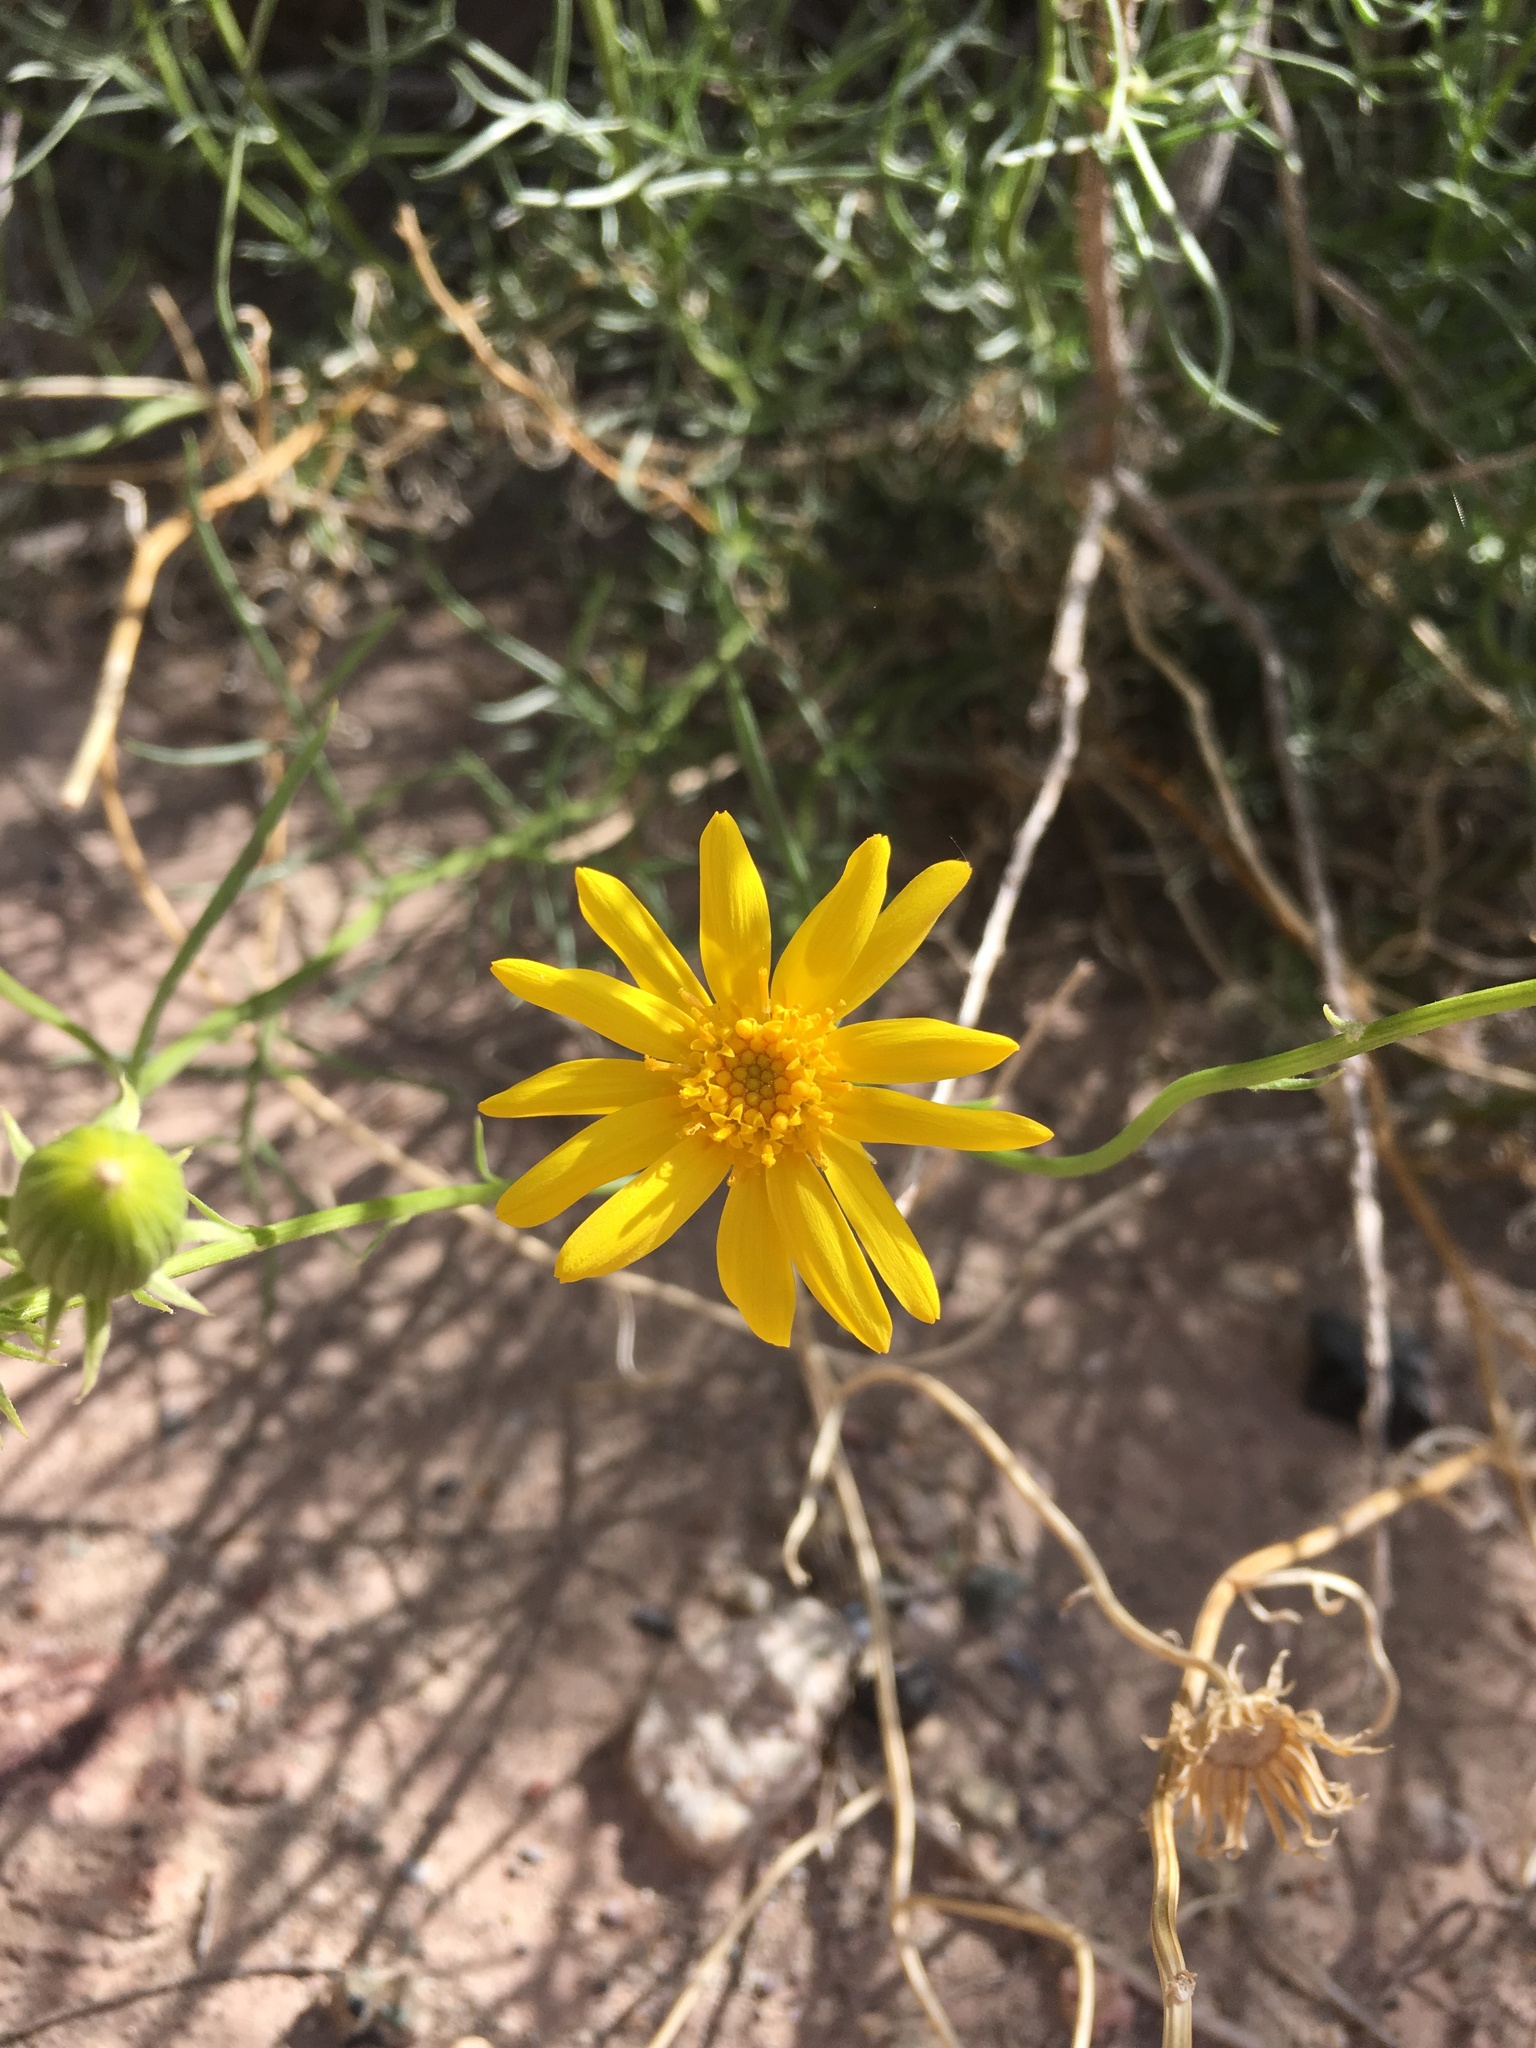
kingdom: Plantae
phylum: Tracheophyta
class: Magnoliopsida
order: Asterales
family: Asteraceae
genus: Senecio
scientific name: Senecio flaccidus
